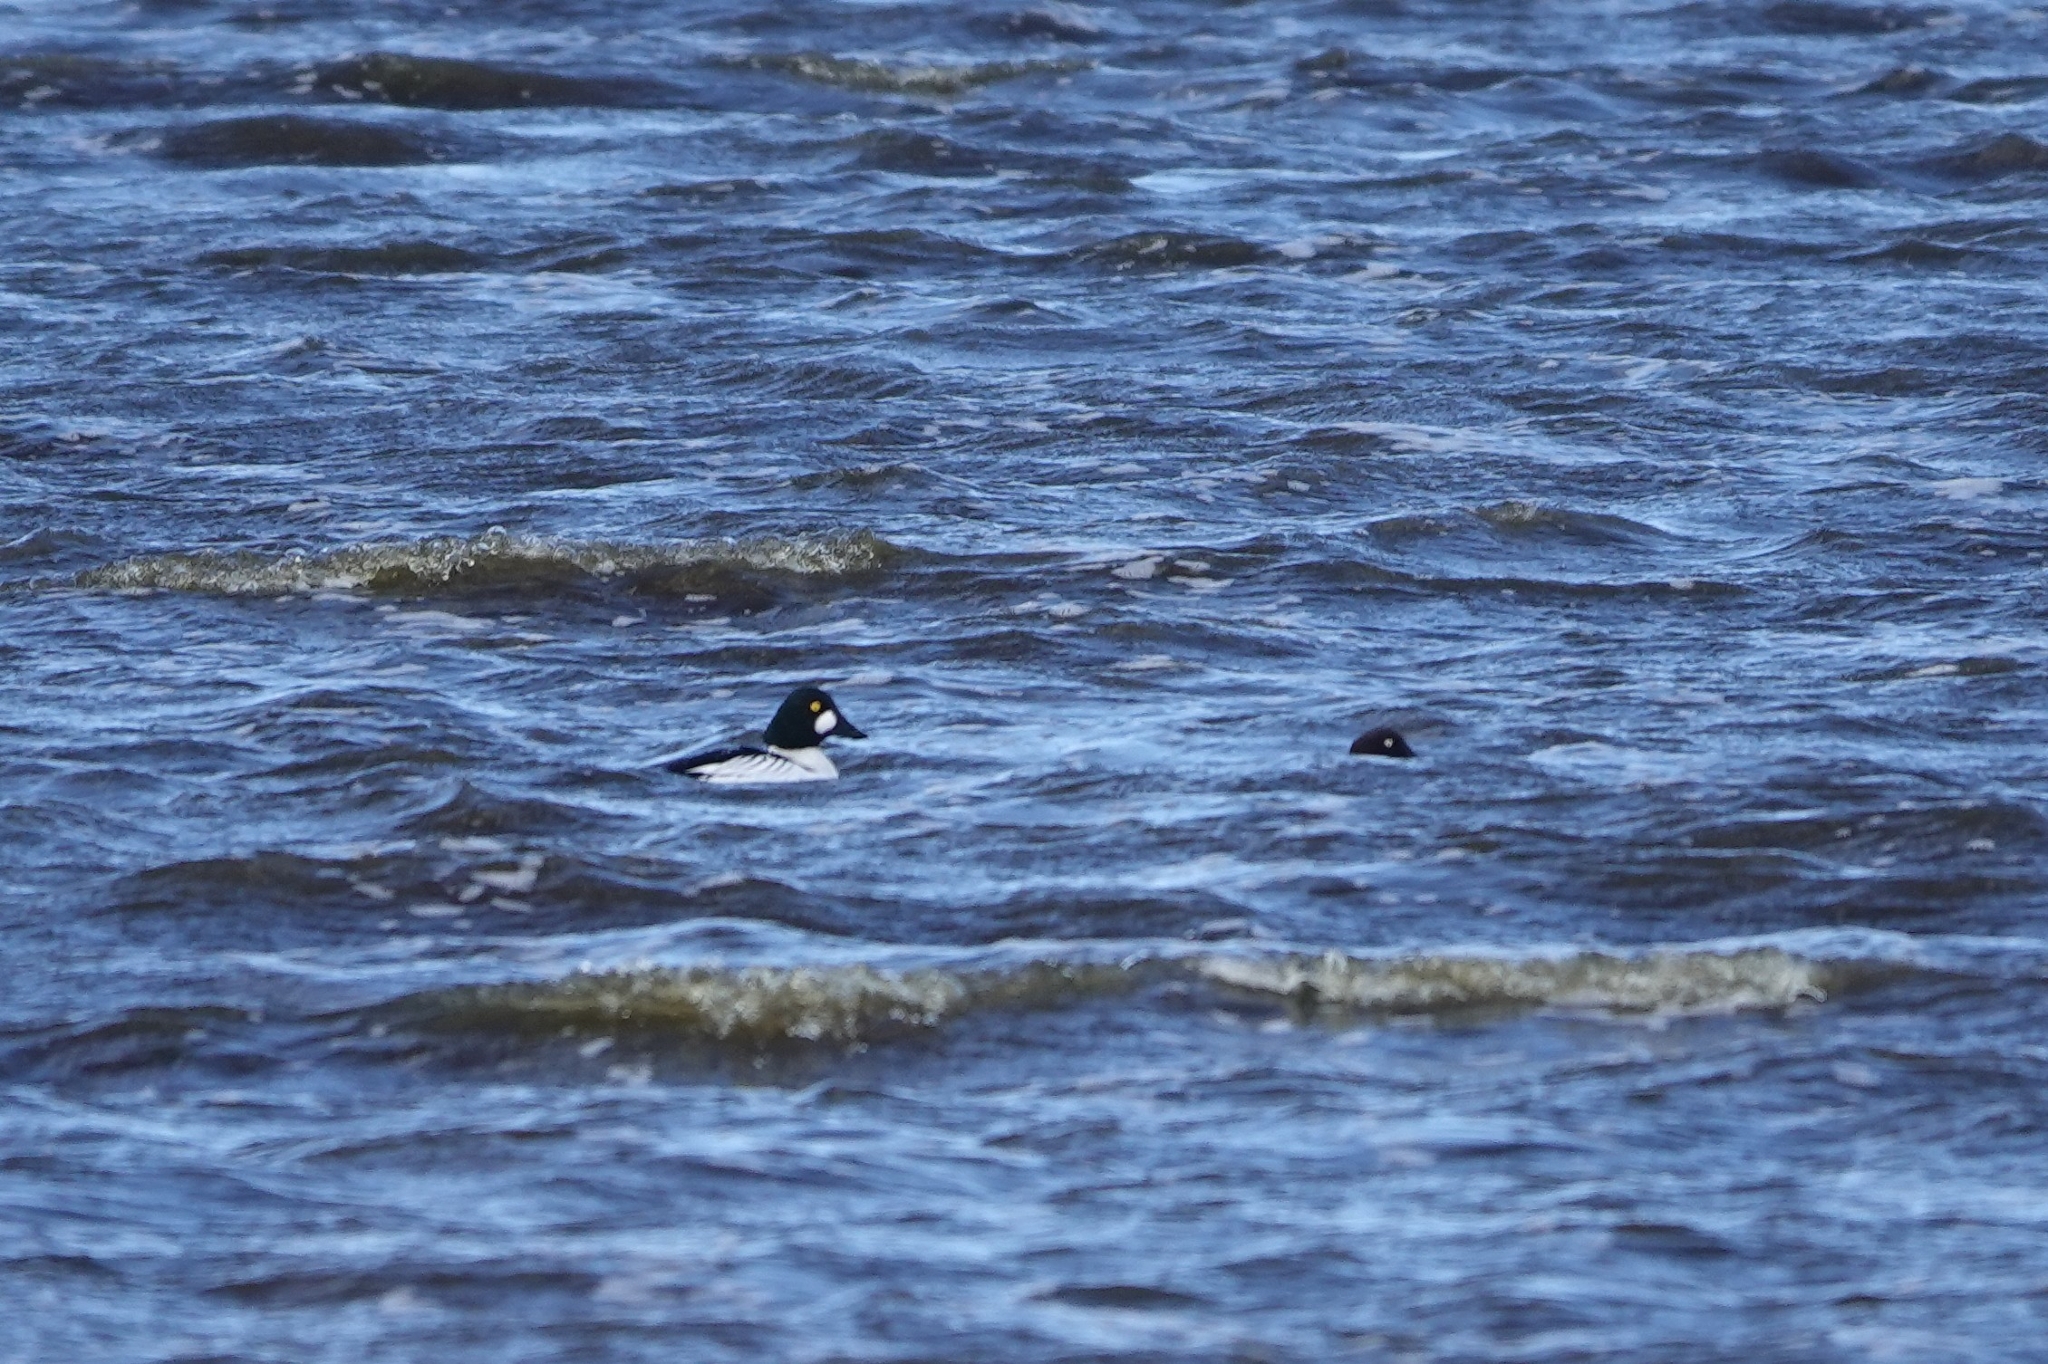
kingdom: Animalia
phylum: Chordata
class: Aves
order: Anseriformes
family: Anatidae
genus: Bucephala
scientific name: Bucephala clangula
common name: Common goldeneye
